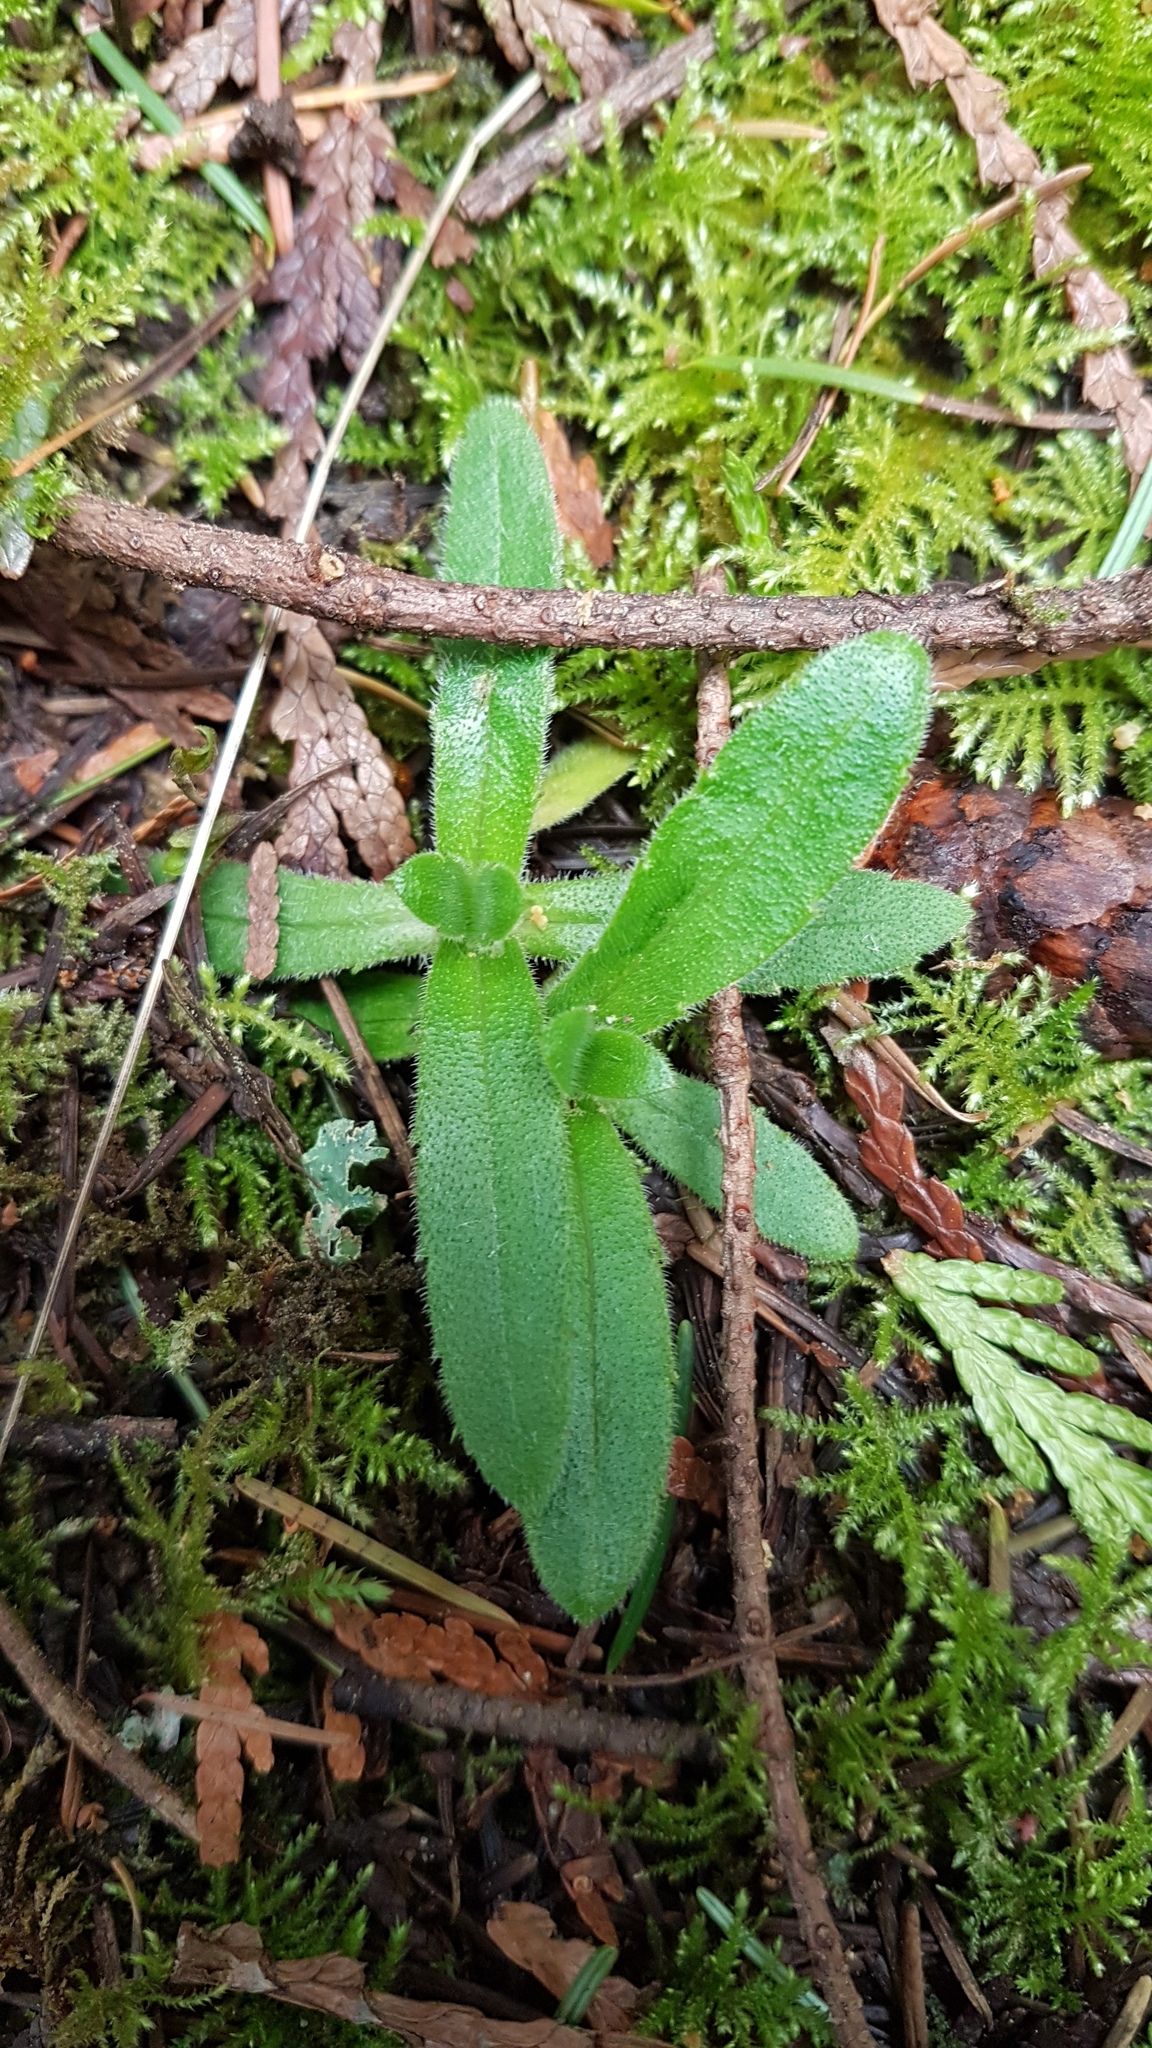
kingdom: Plantae
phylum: Tracheophyta
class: Magnoliopsida
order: Asterales
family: Asteraceae
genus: Anisocarpus
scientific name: Anisocarpus madioides
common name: Woodland madia
